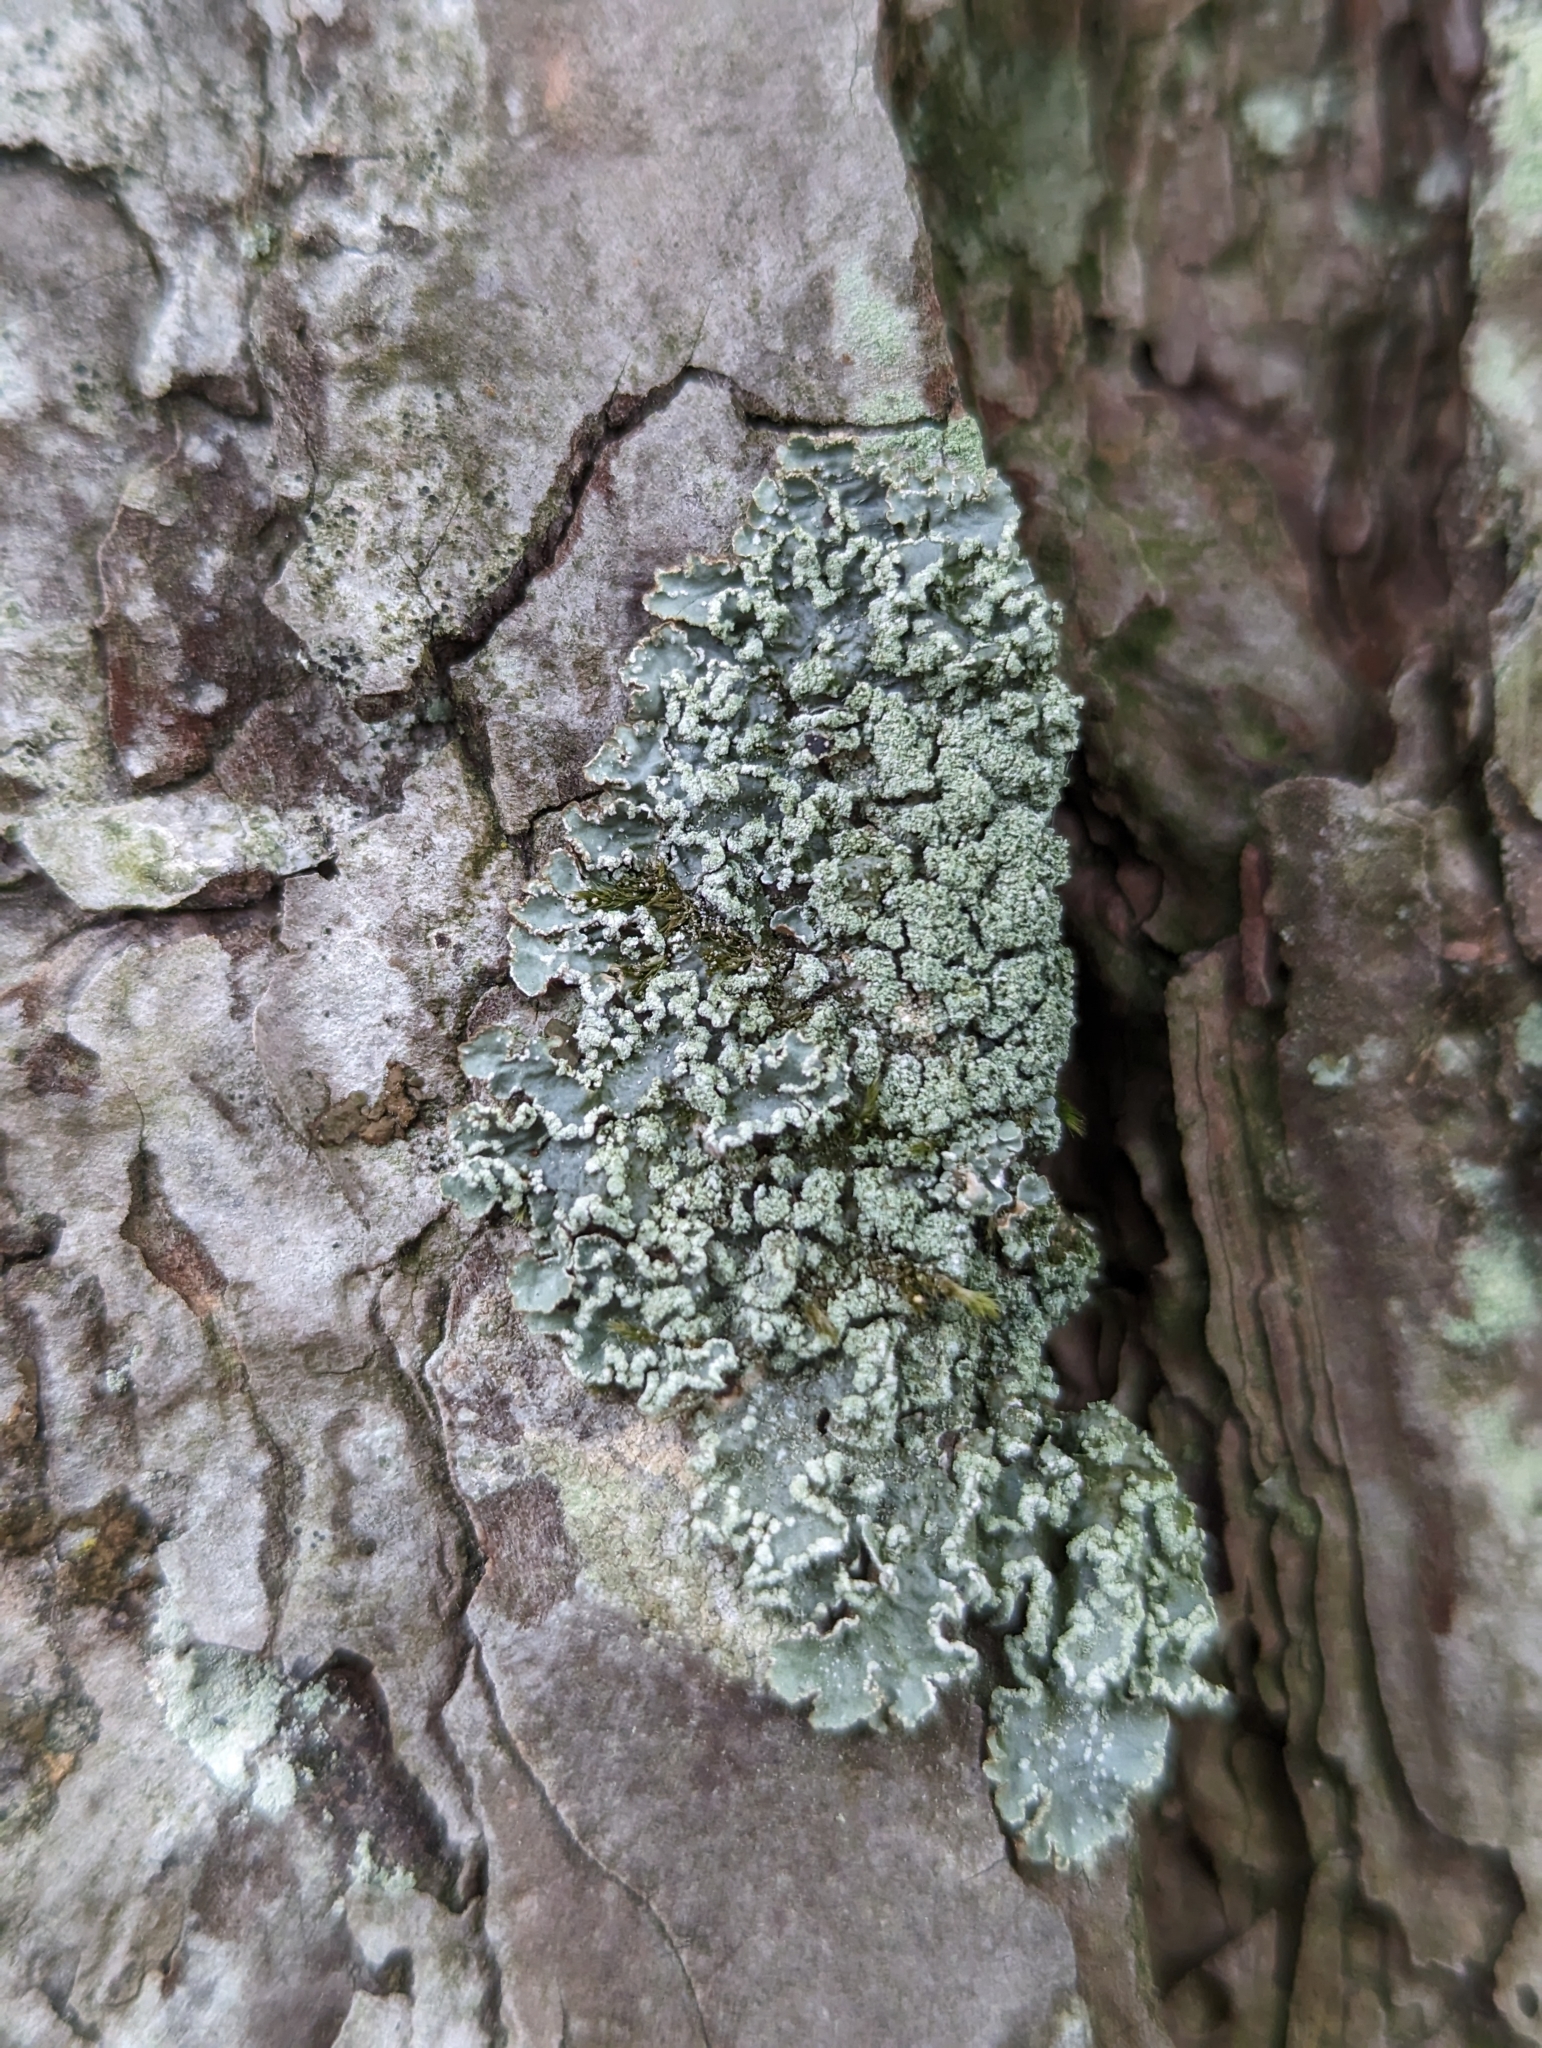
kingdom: Fungi
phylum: Ascomycota
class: Lecanoromycetes
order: Lecanorales
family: Parmeliaceae
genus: Punctelia
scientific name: Punctelia jeckeri
